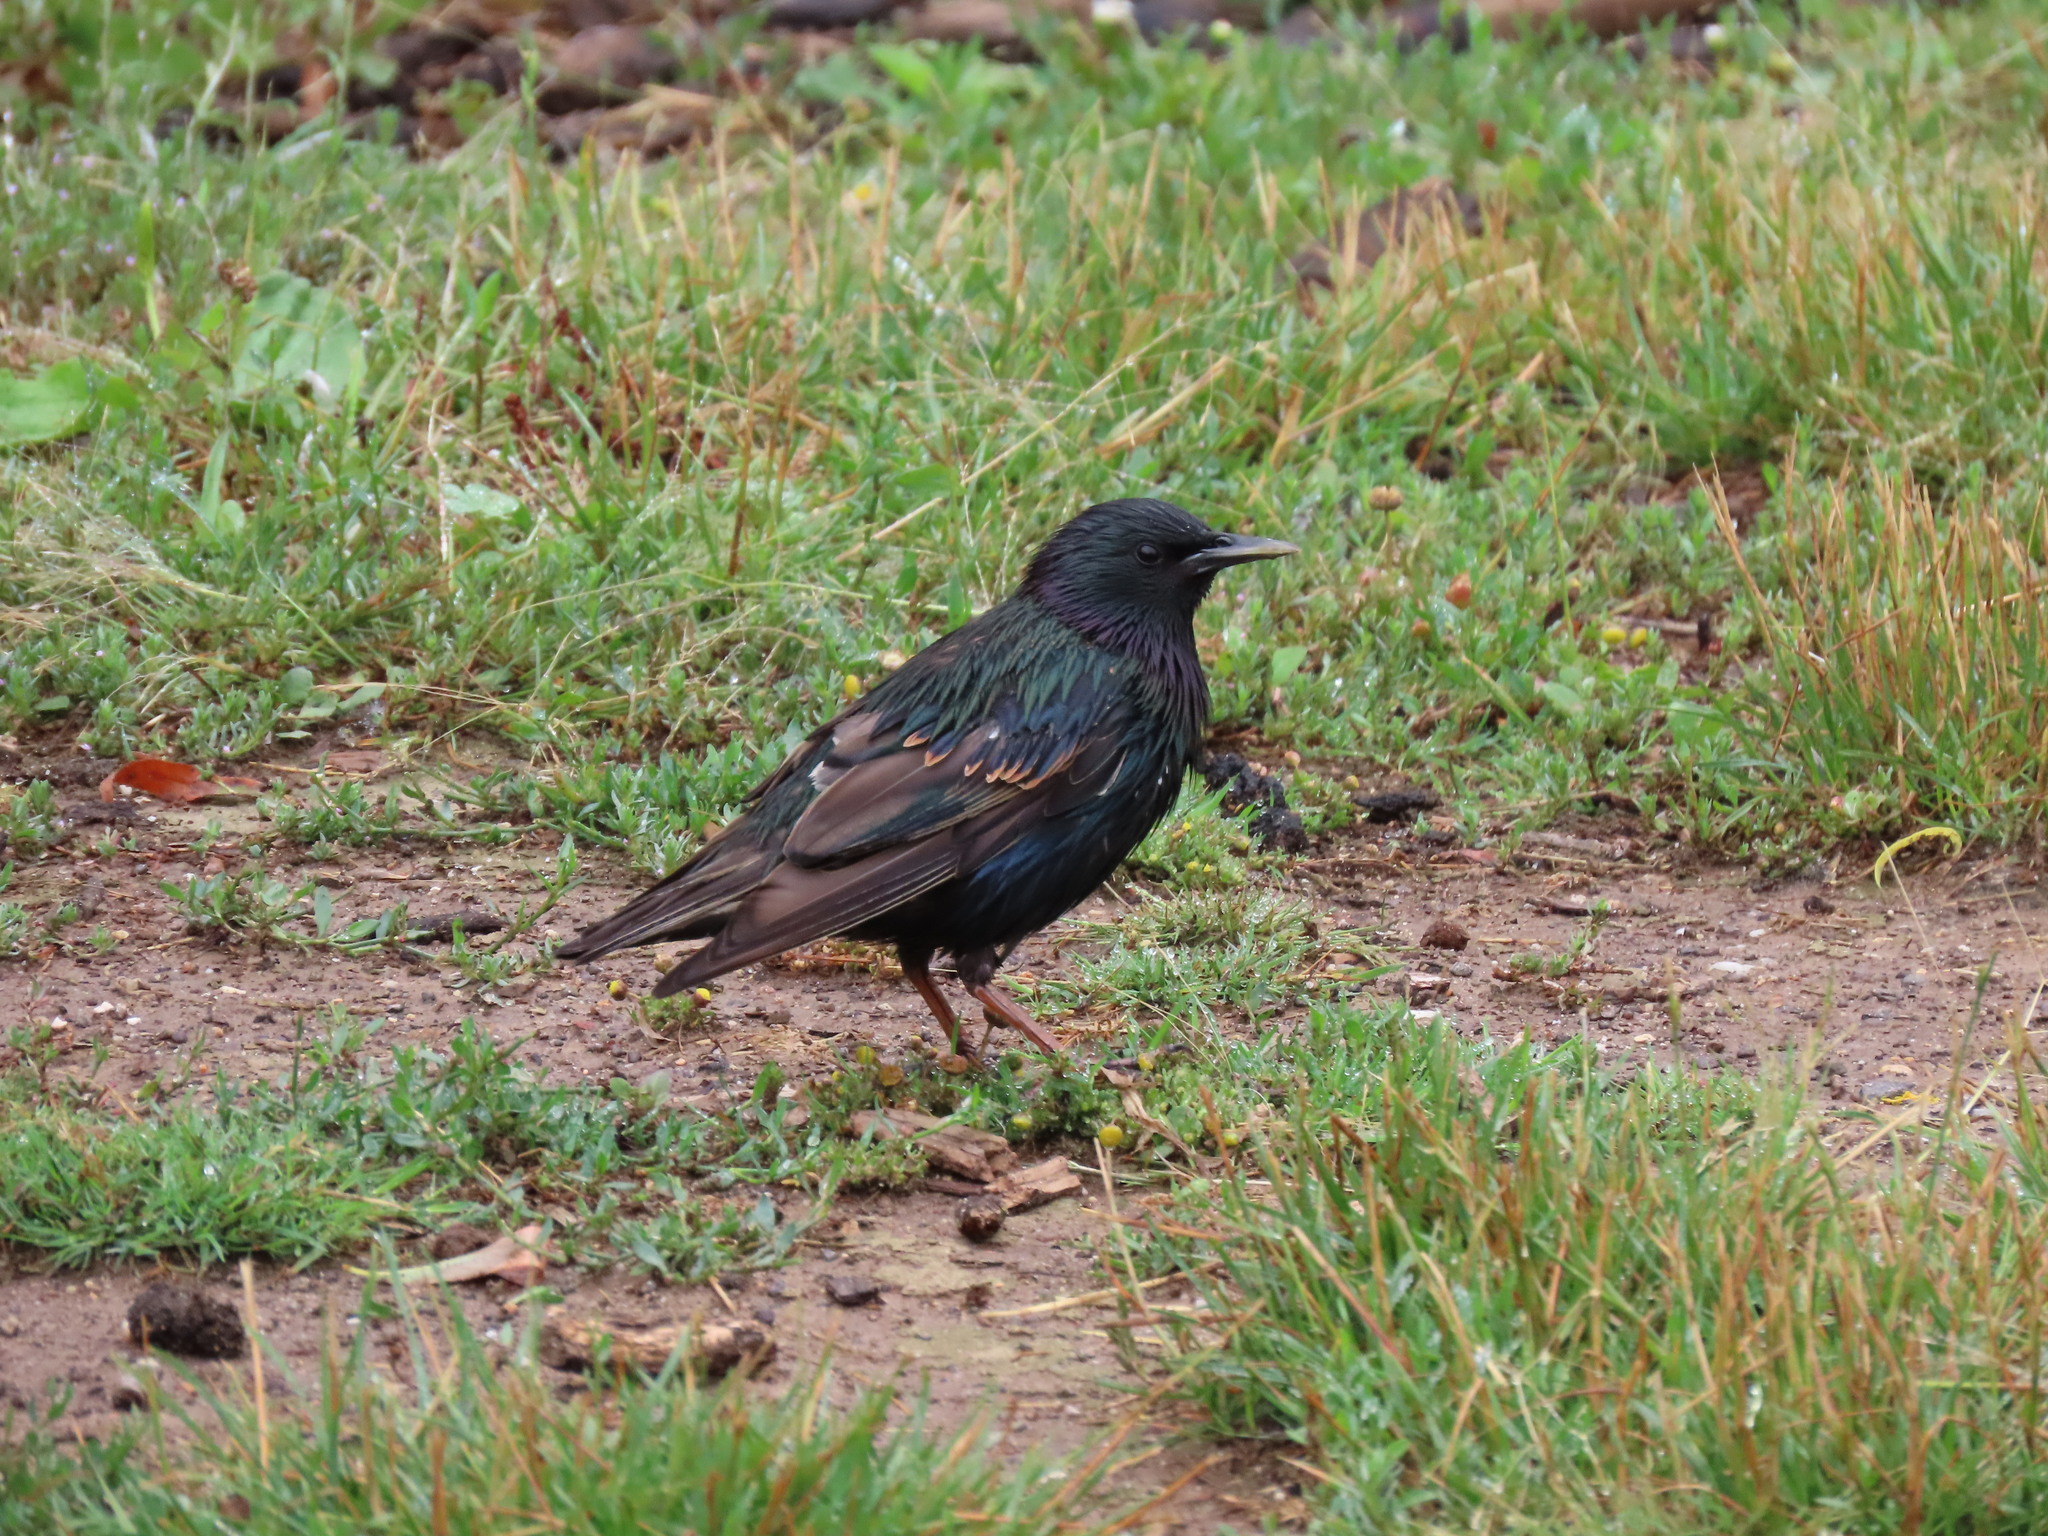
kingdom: Animalia
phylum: Chordata
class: Aves
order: Passeriformes
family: Sturnidae
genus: Sturnus
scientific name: Sturnus vulgaris
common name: Common starling
